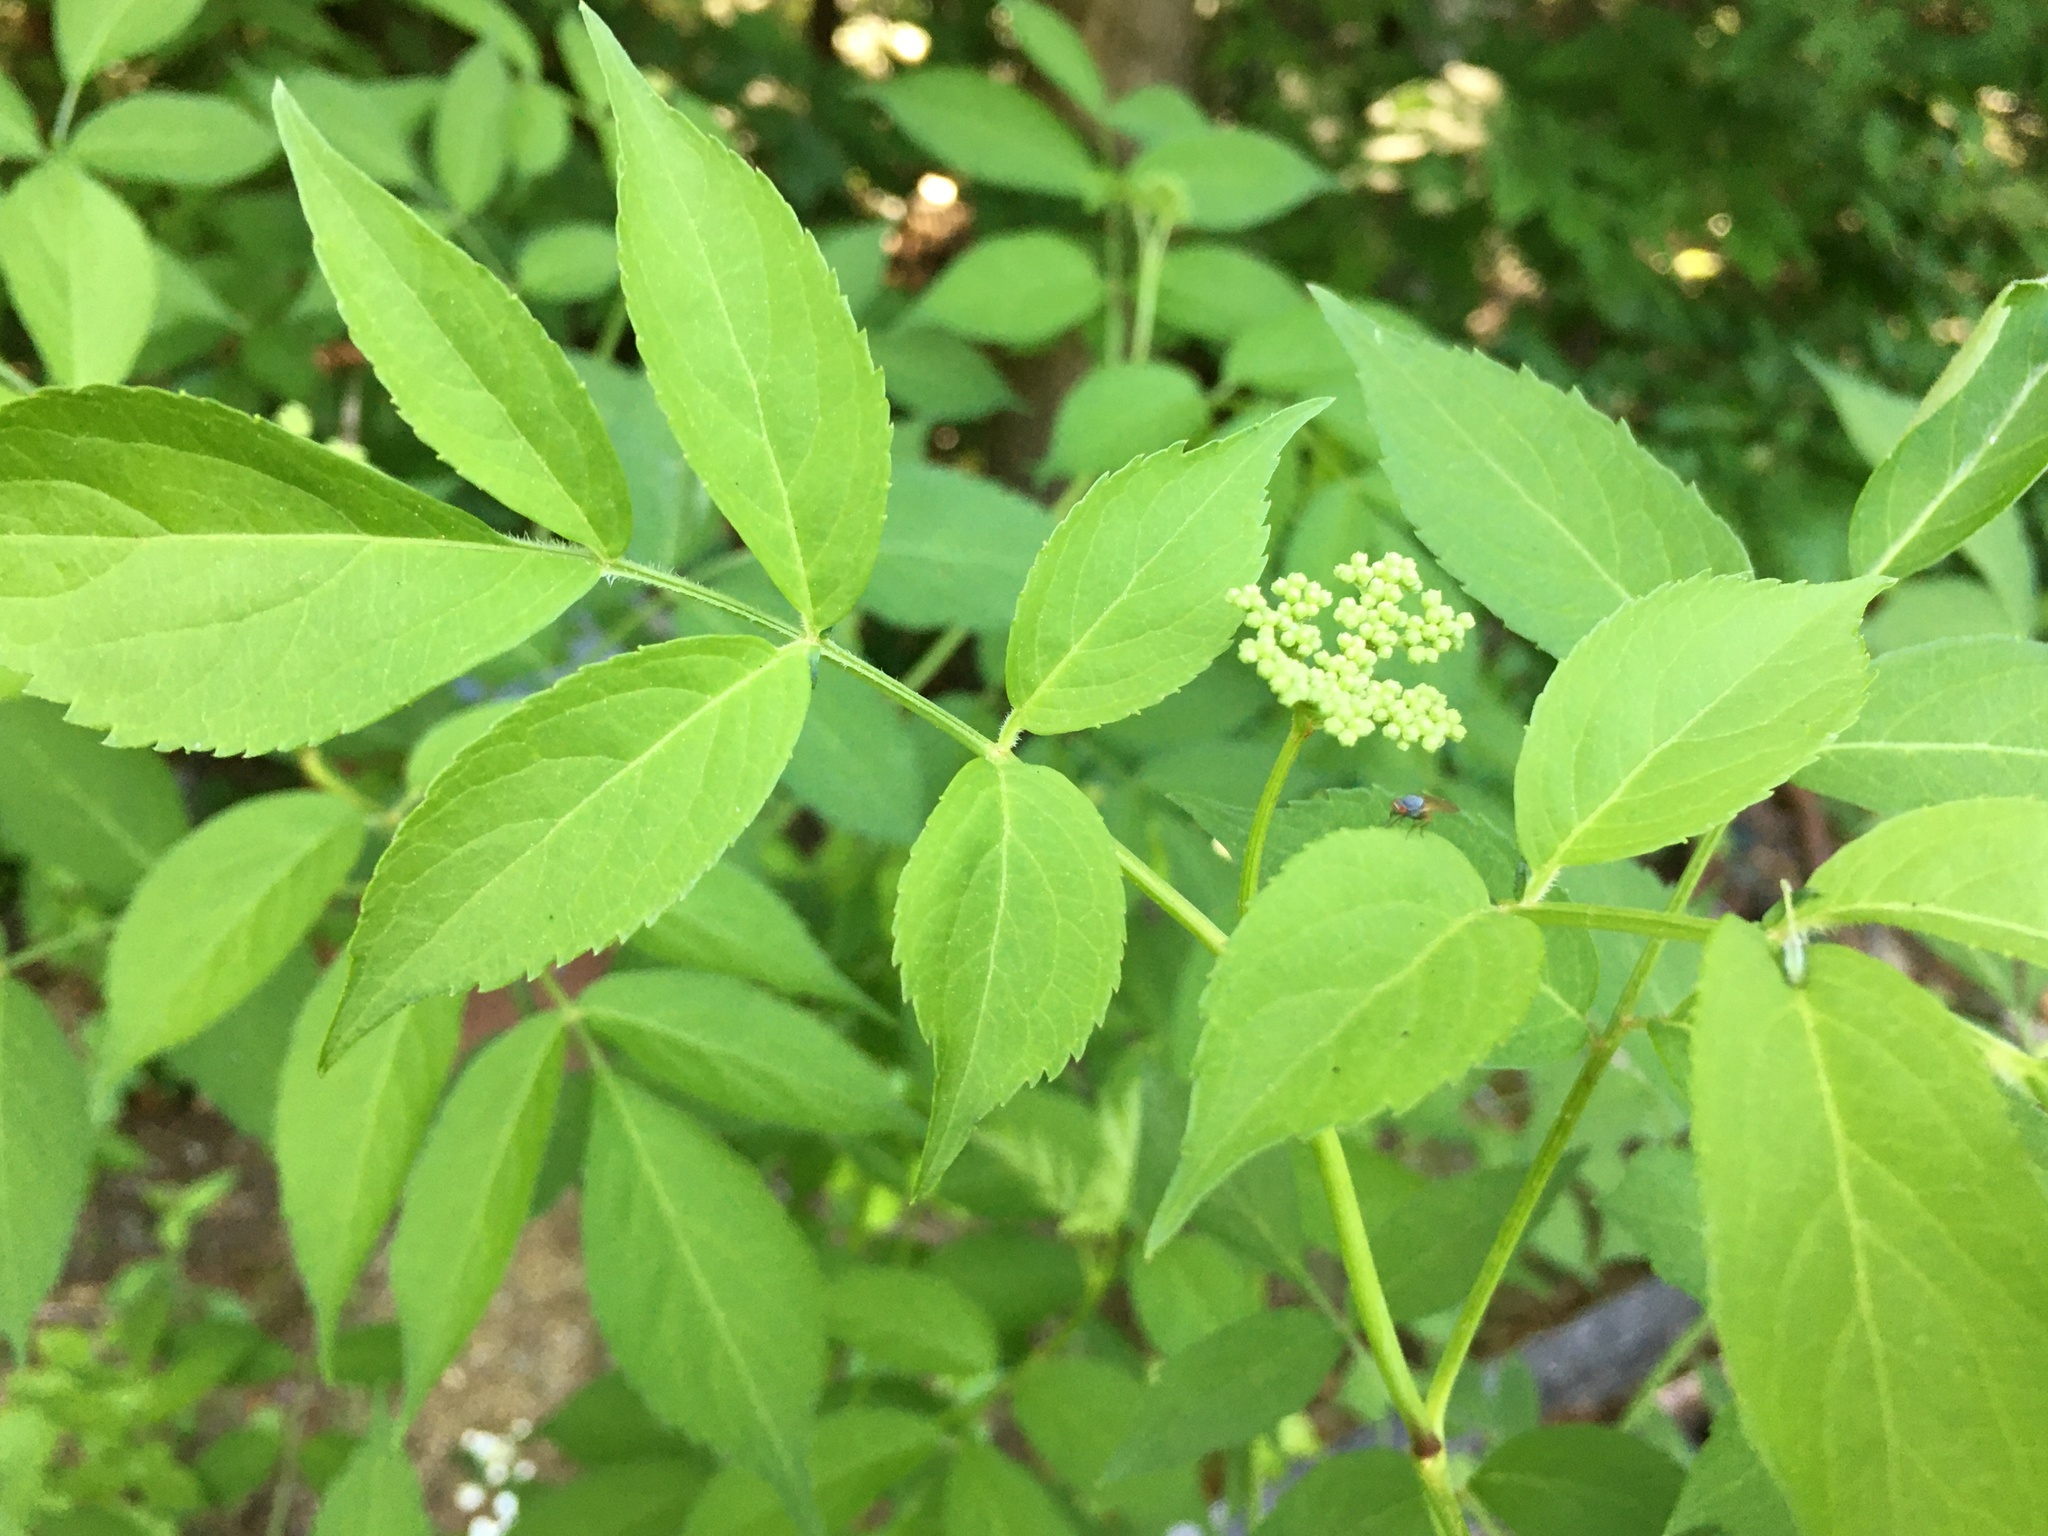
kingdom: Plantae
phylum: Tracheophyta
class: Magnoliopsida
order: Dipsacales
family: Viburnaceae
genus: Sambucus
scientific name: Sambucus canadensis
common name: American elder
